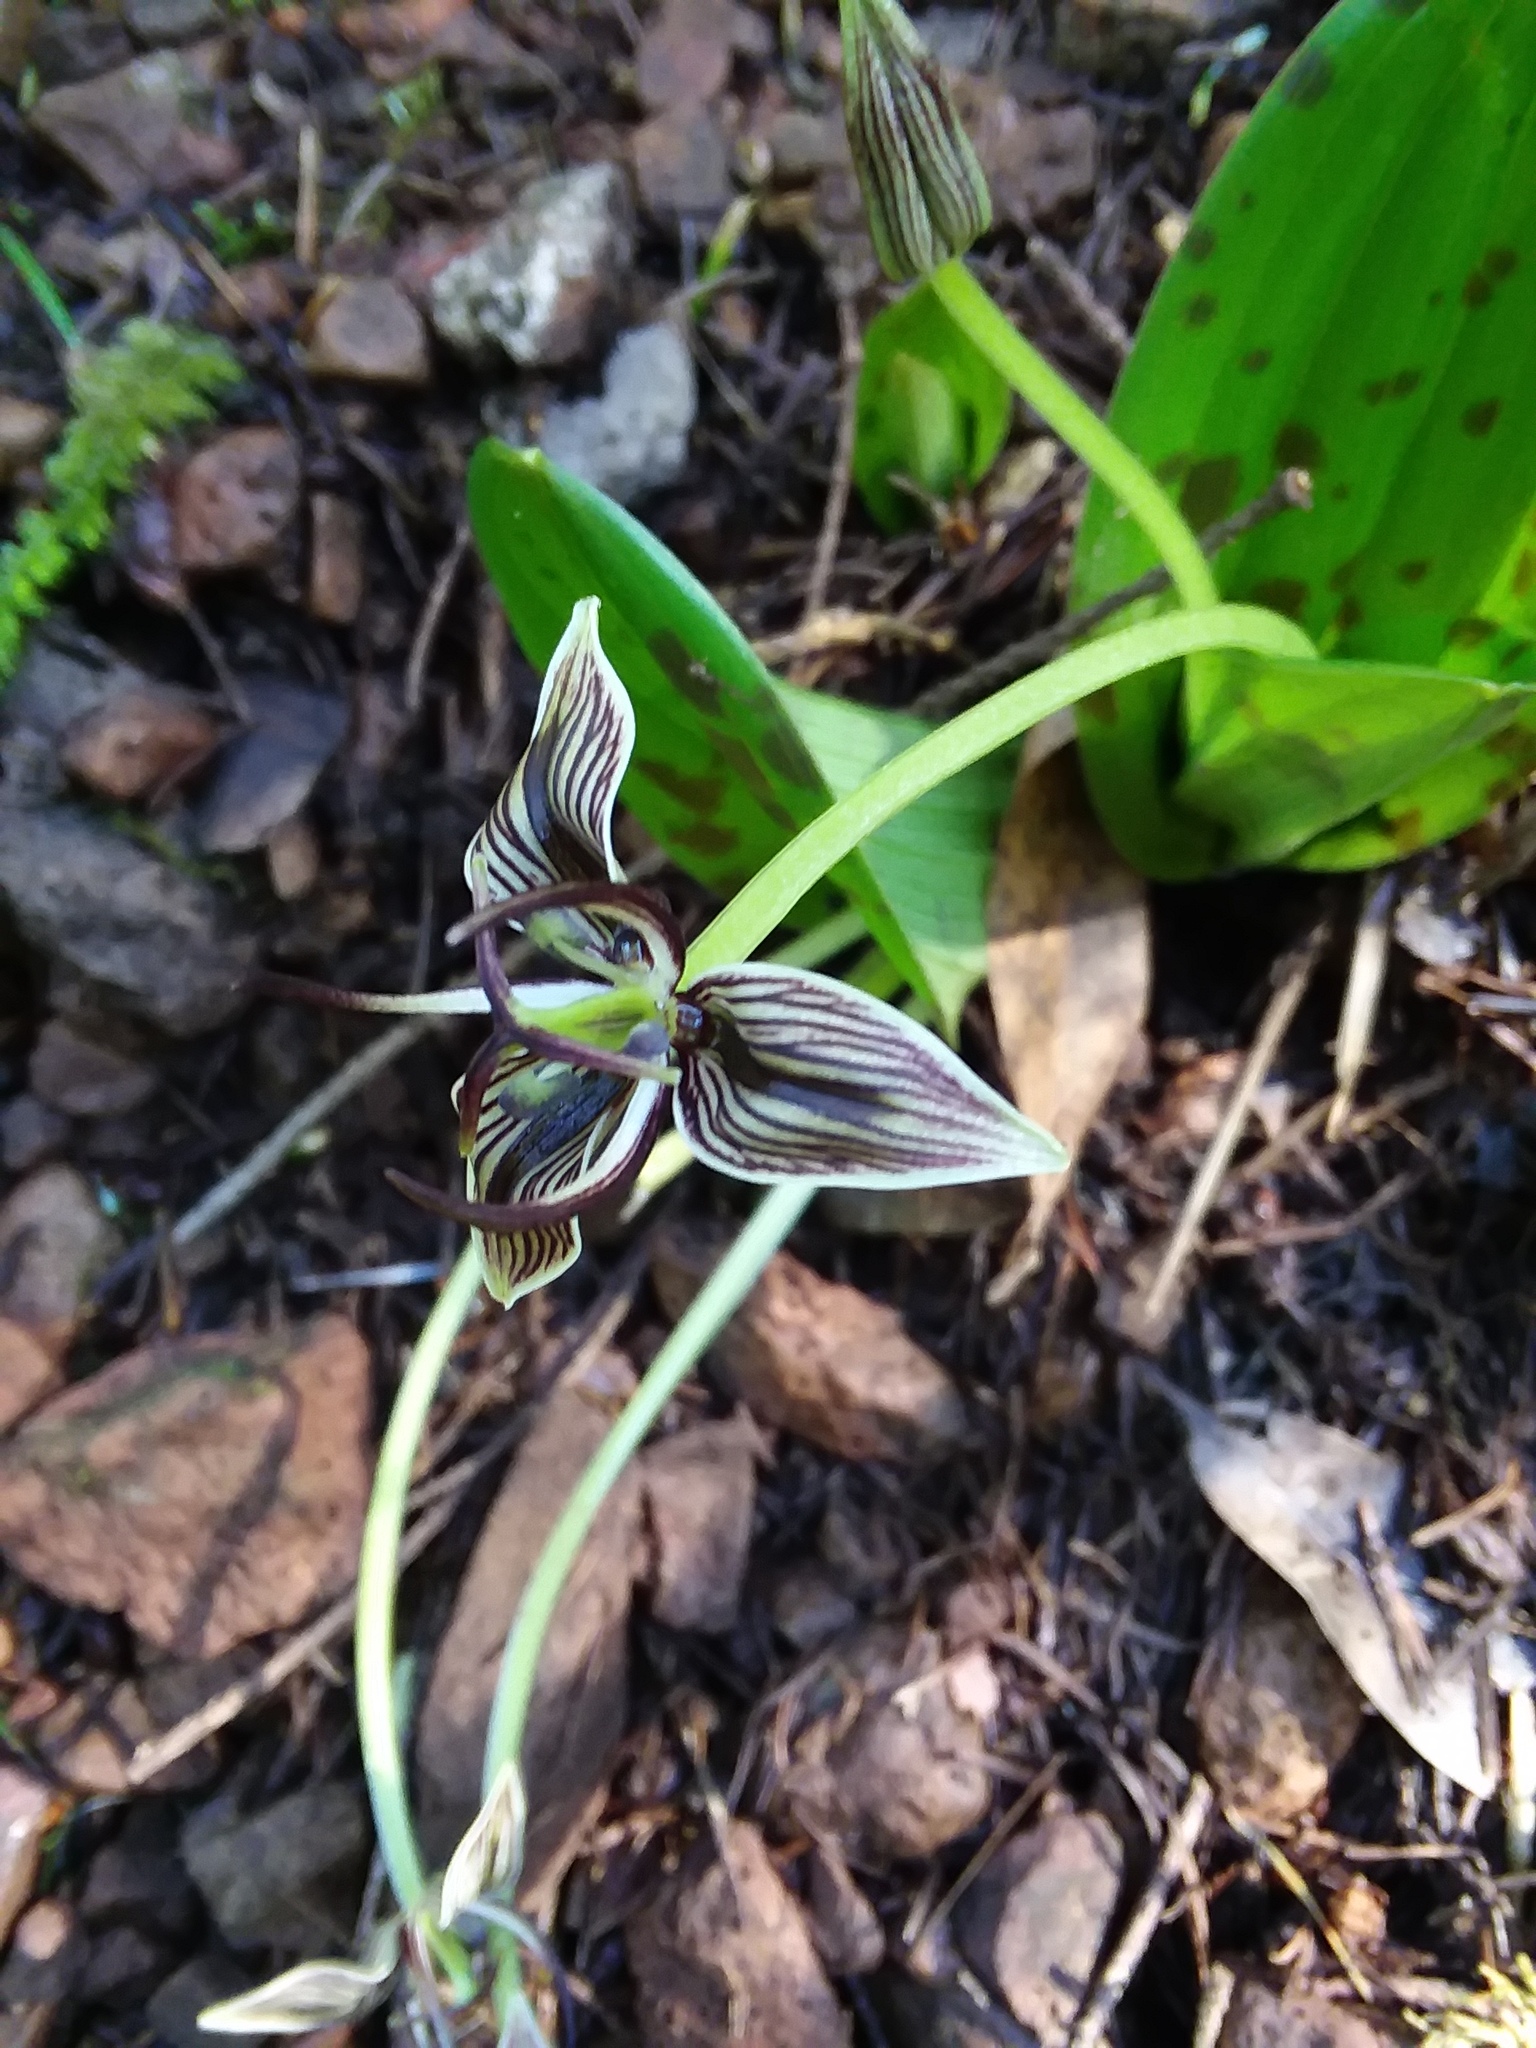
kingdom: Plantae
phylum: Tracheophyta
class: Liliopsida
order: Liliales
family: Liliaceae
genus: Scoliopus
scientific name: Scoliopus bigelovii
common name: Foetid adder's-tongue
